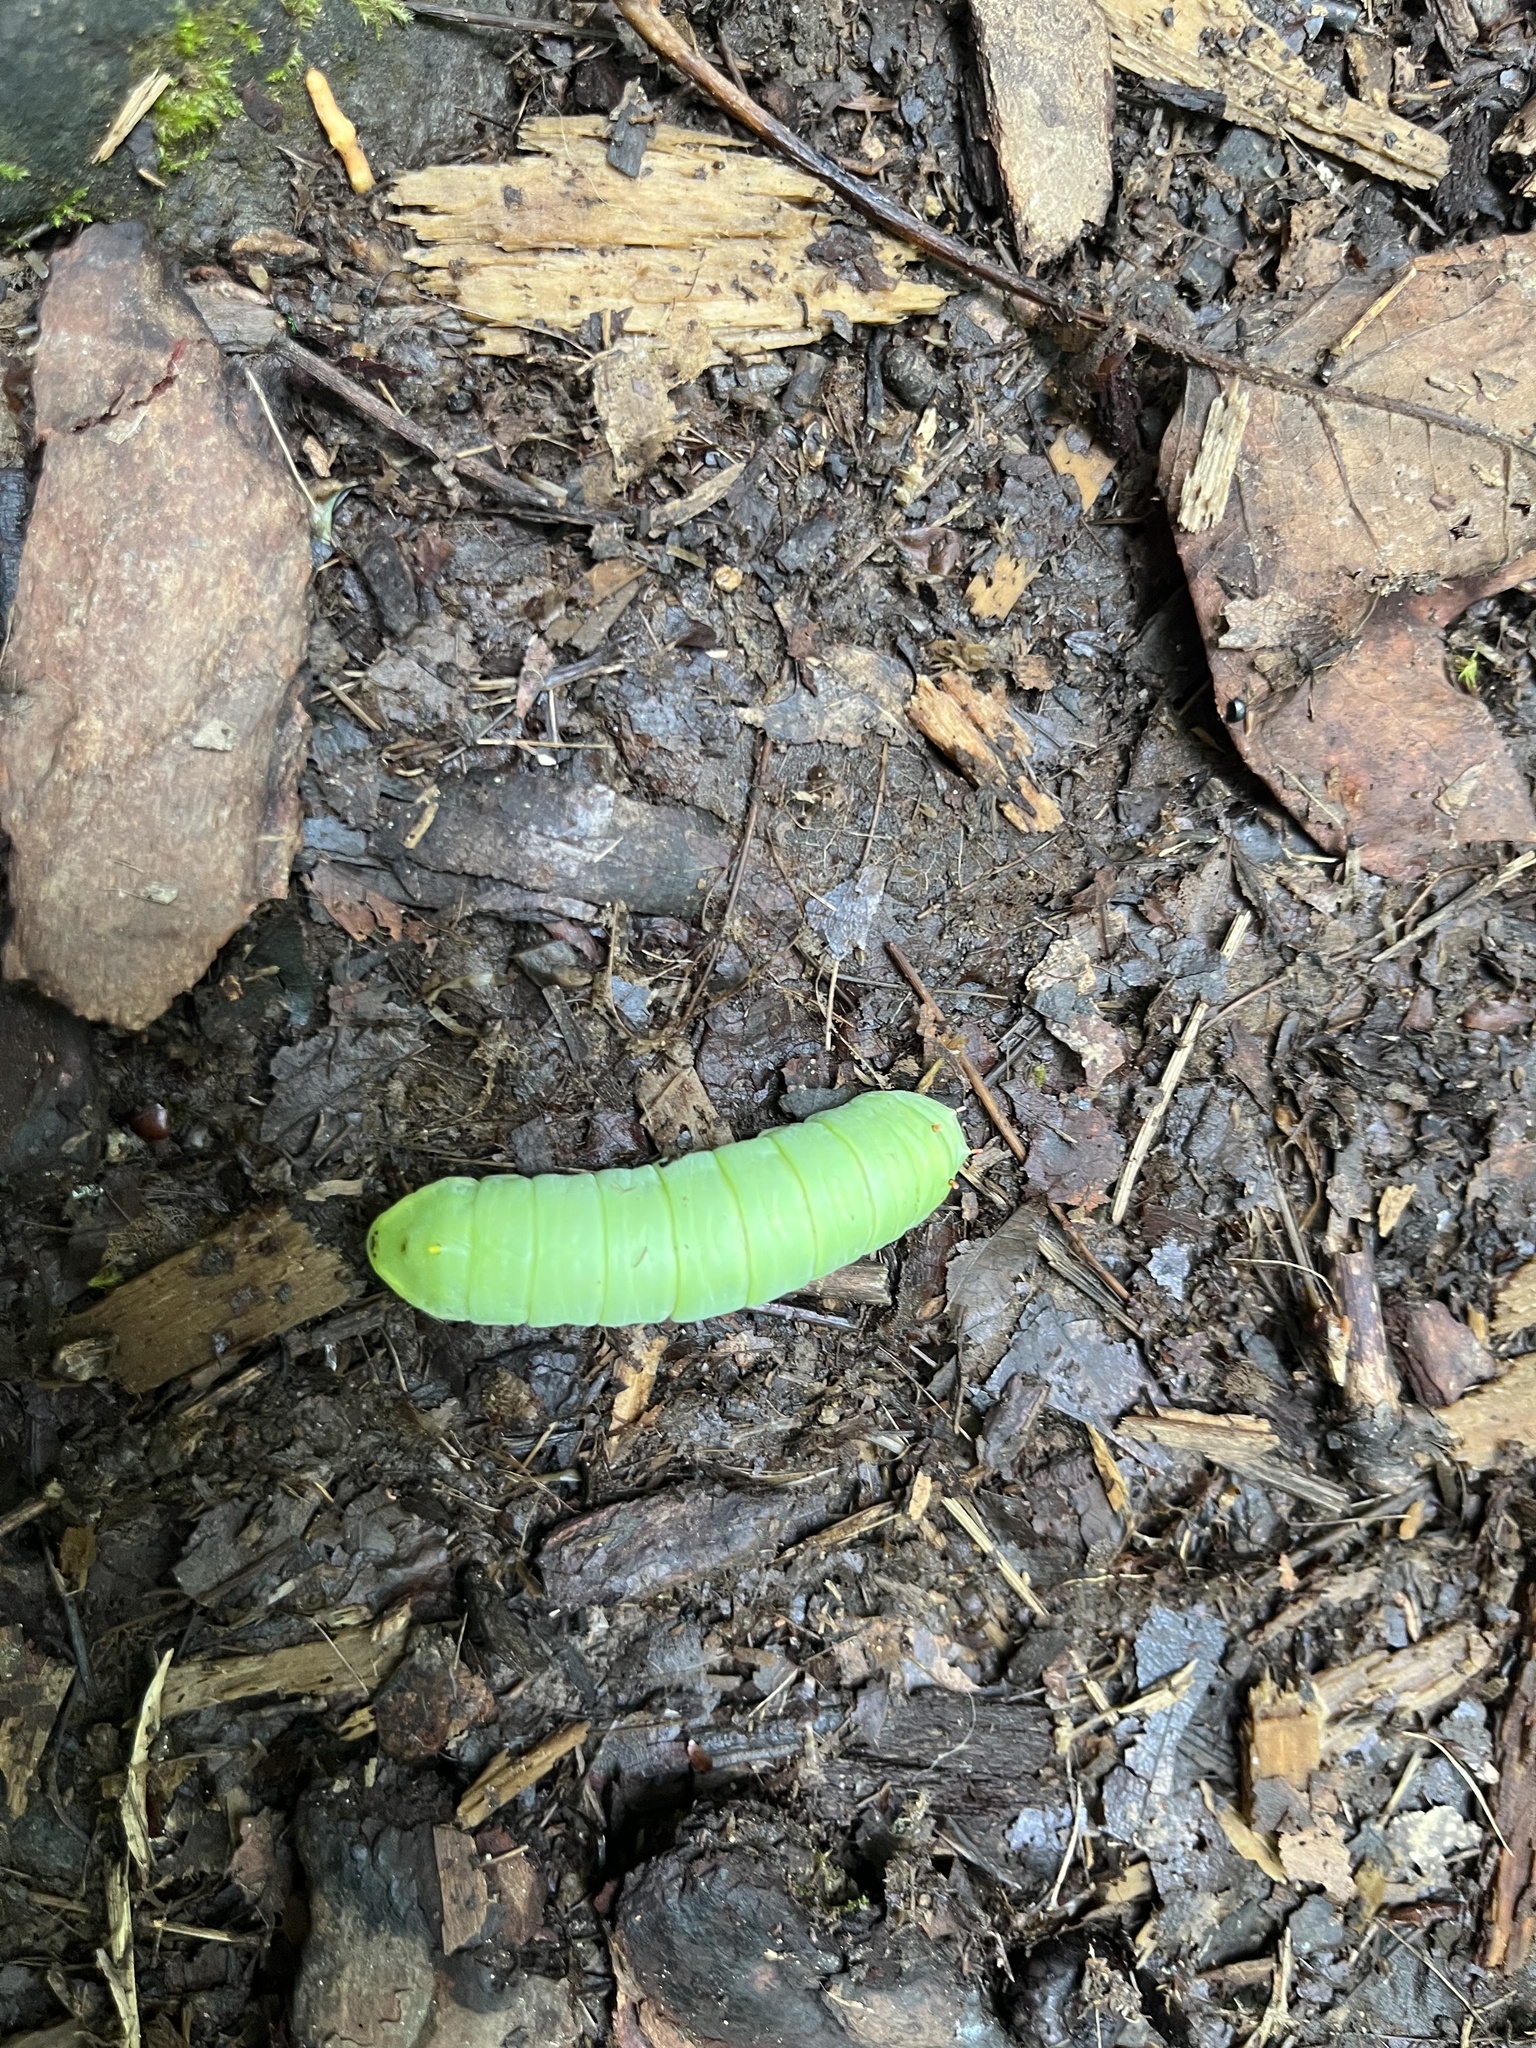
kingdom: Animalia
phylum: Arthropoda
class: Insecta
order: Lepidoptera
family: Saturniidae
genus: Callosamia
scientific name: Callosamia angulifera
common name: Tulip tree silkmoth
